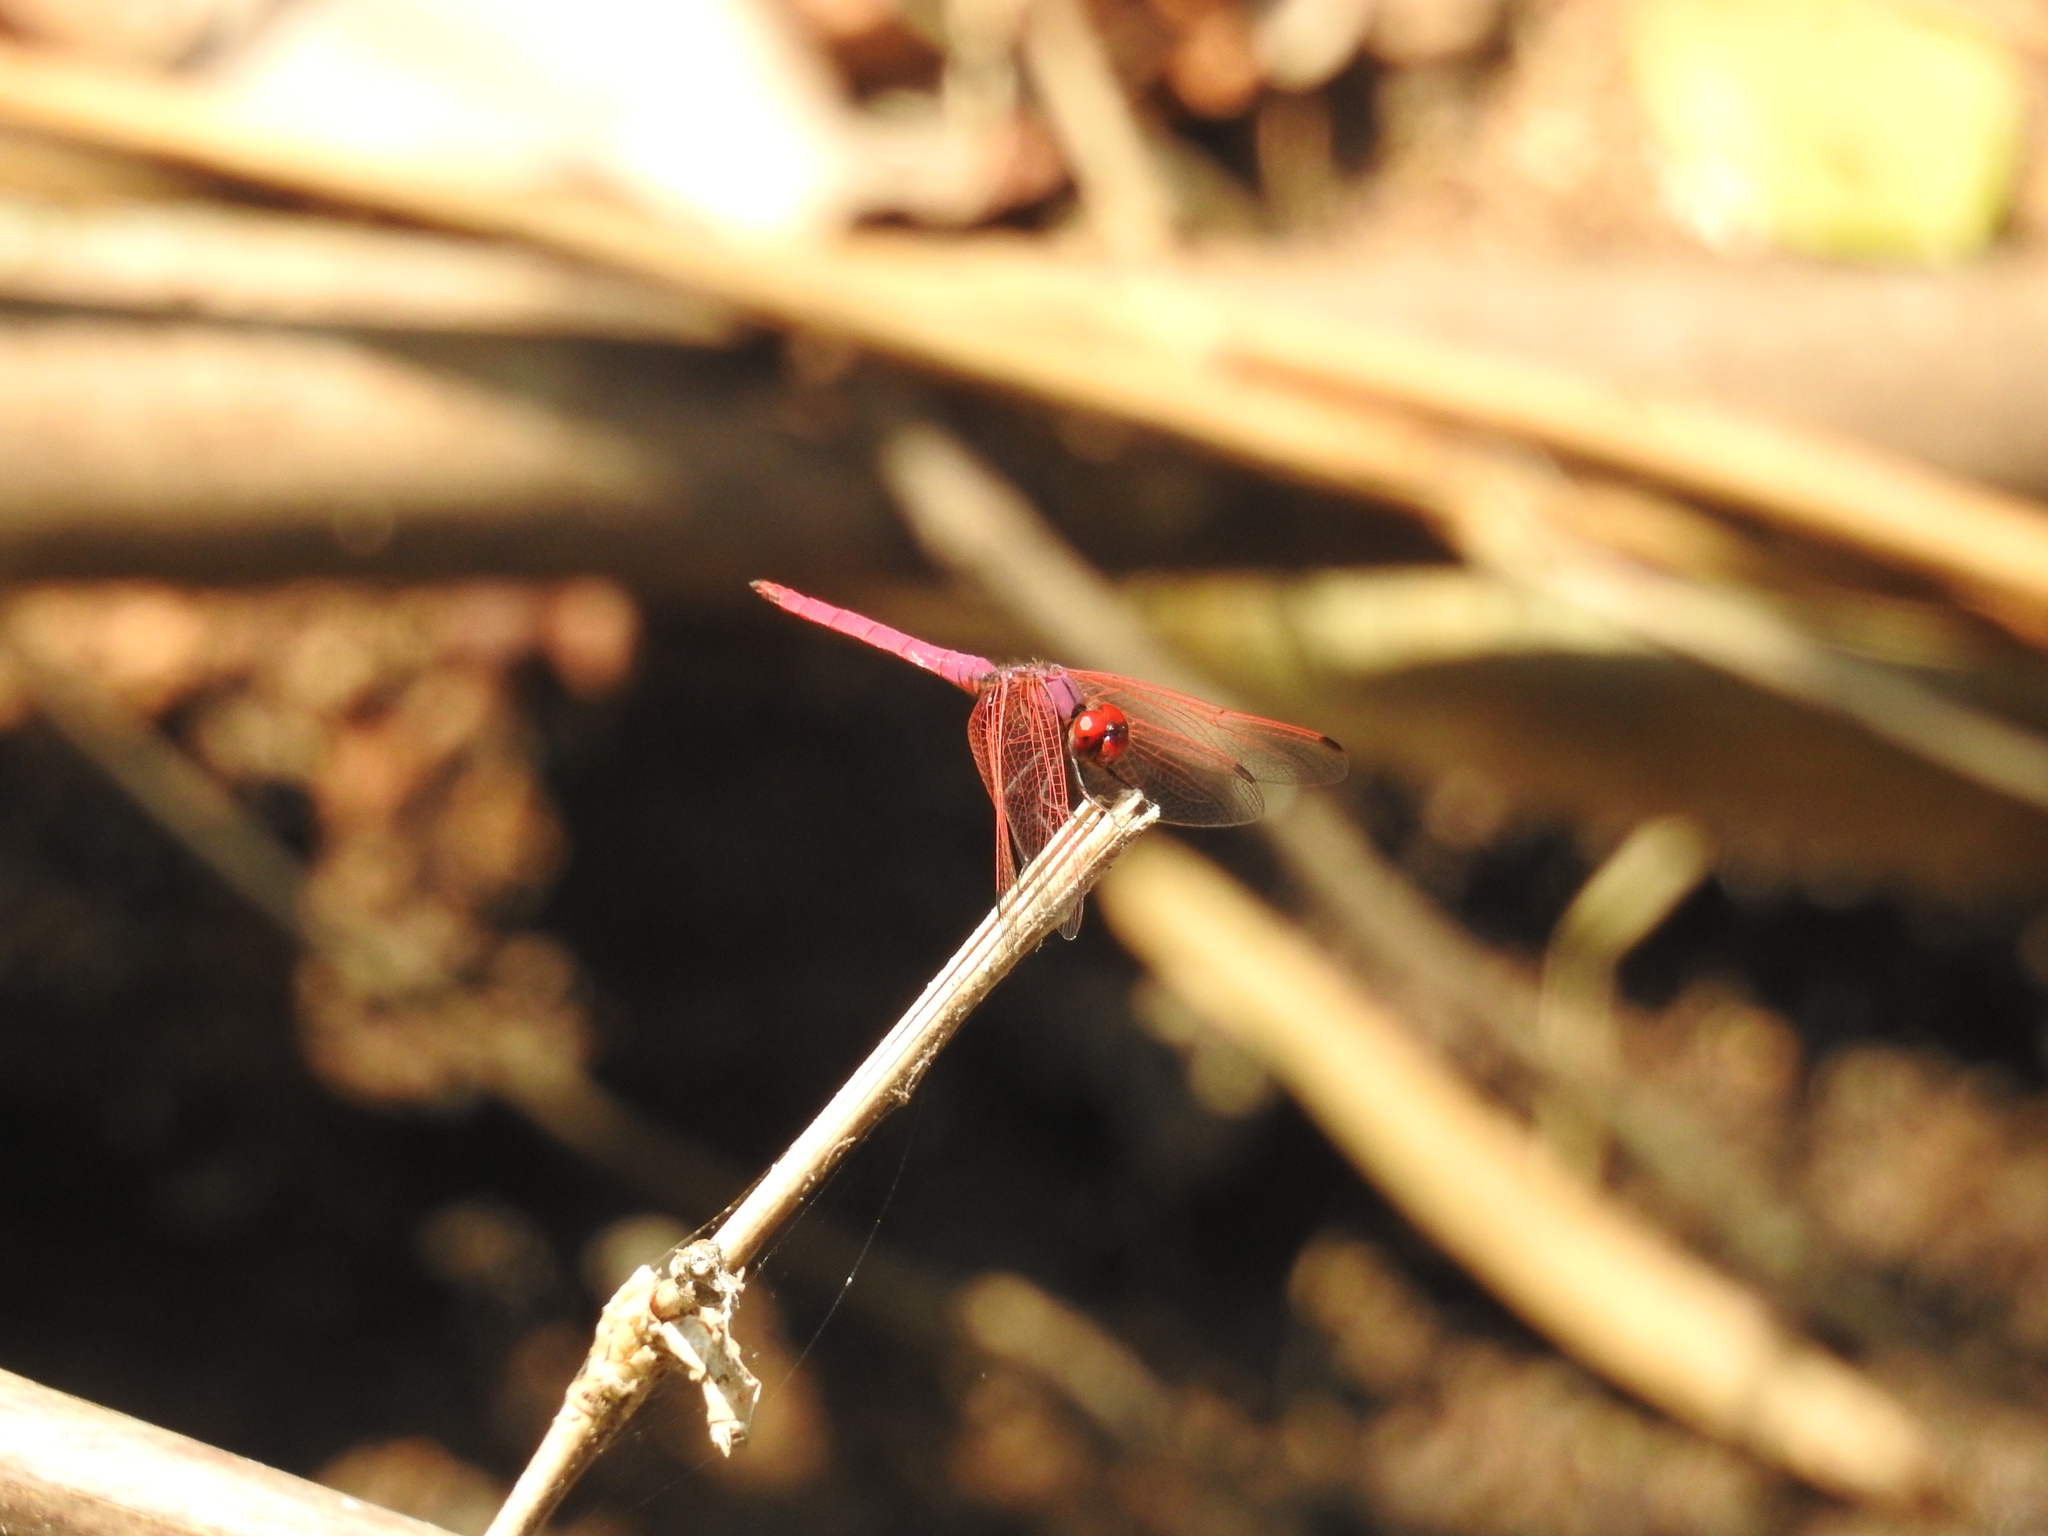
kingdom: Animalia
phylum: Arthropoda
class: Insecta
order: Odonata
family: Libellulidae
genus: Trithemis
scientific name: Trithemis aurora
